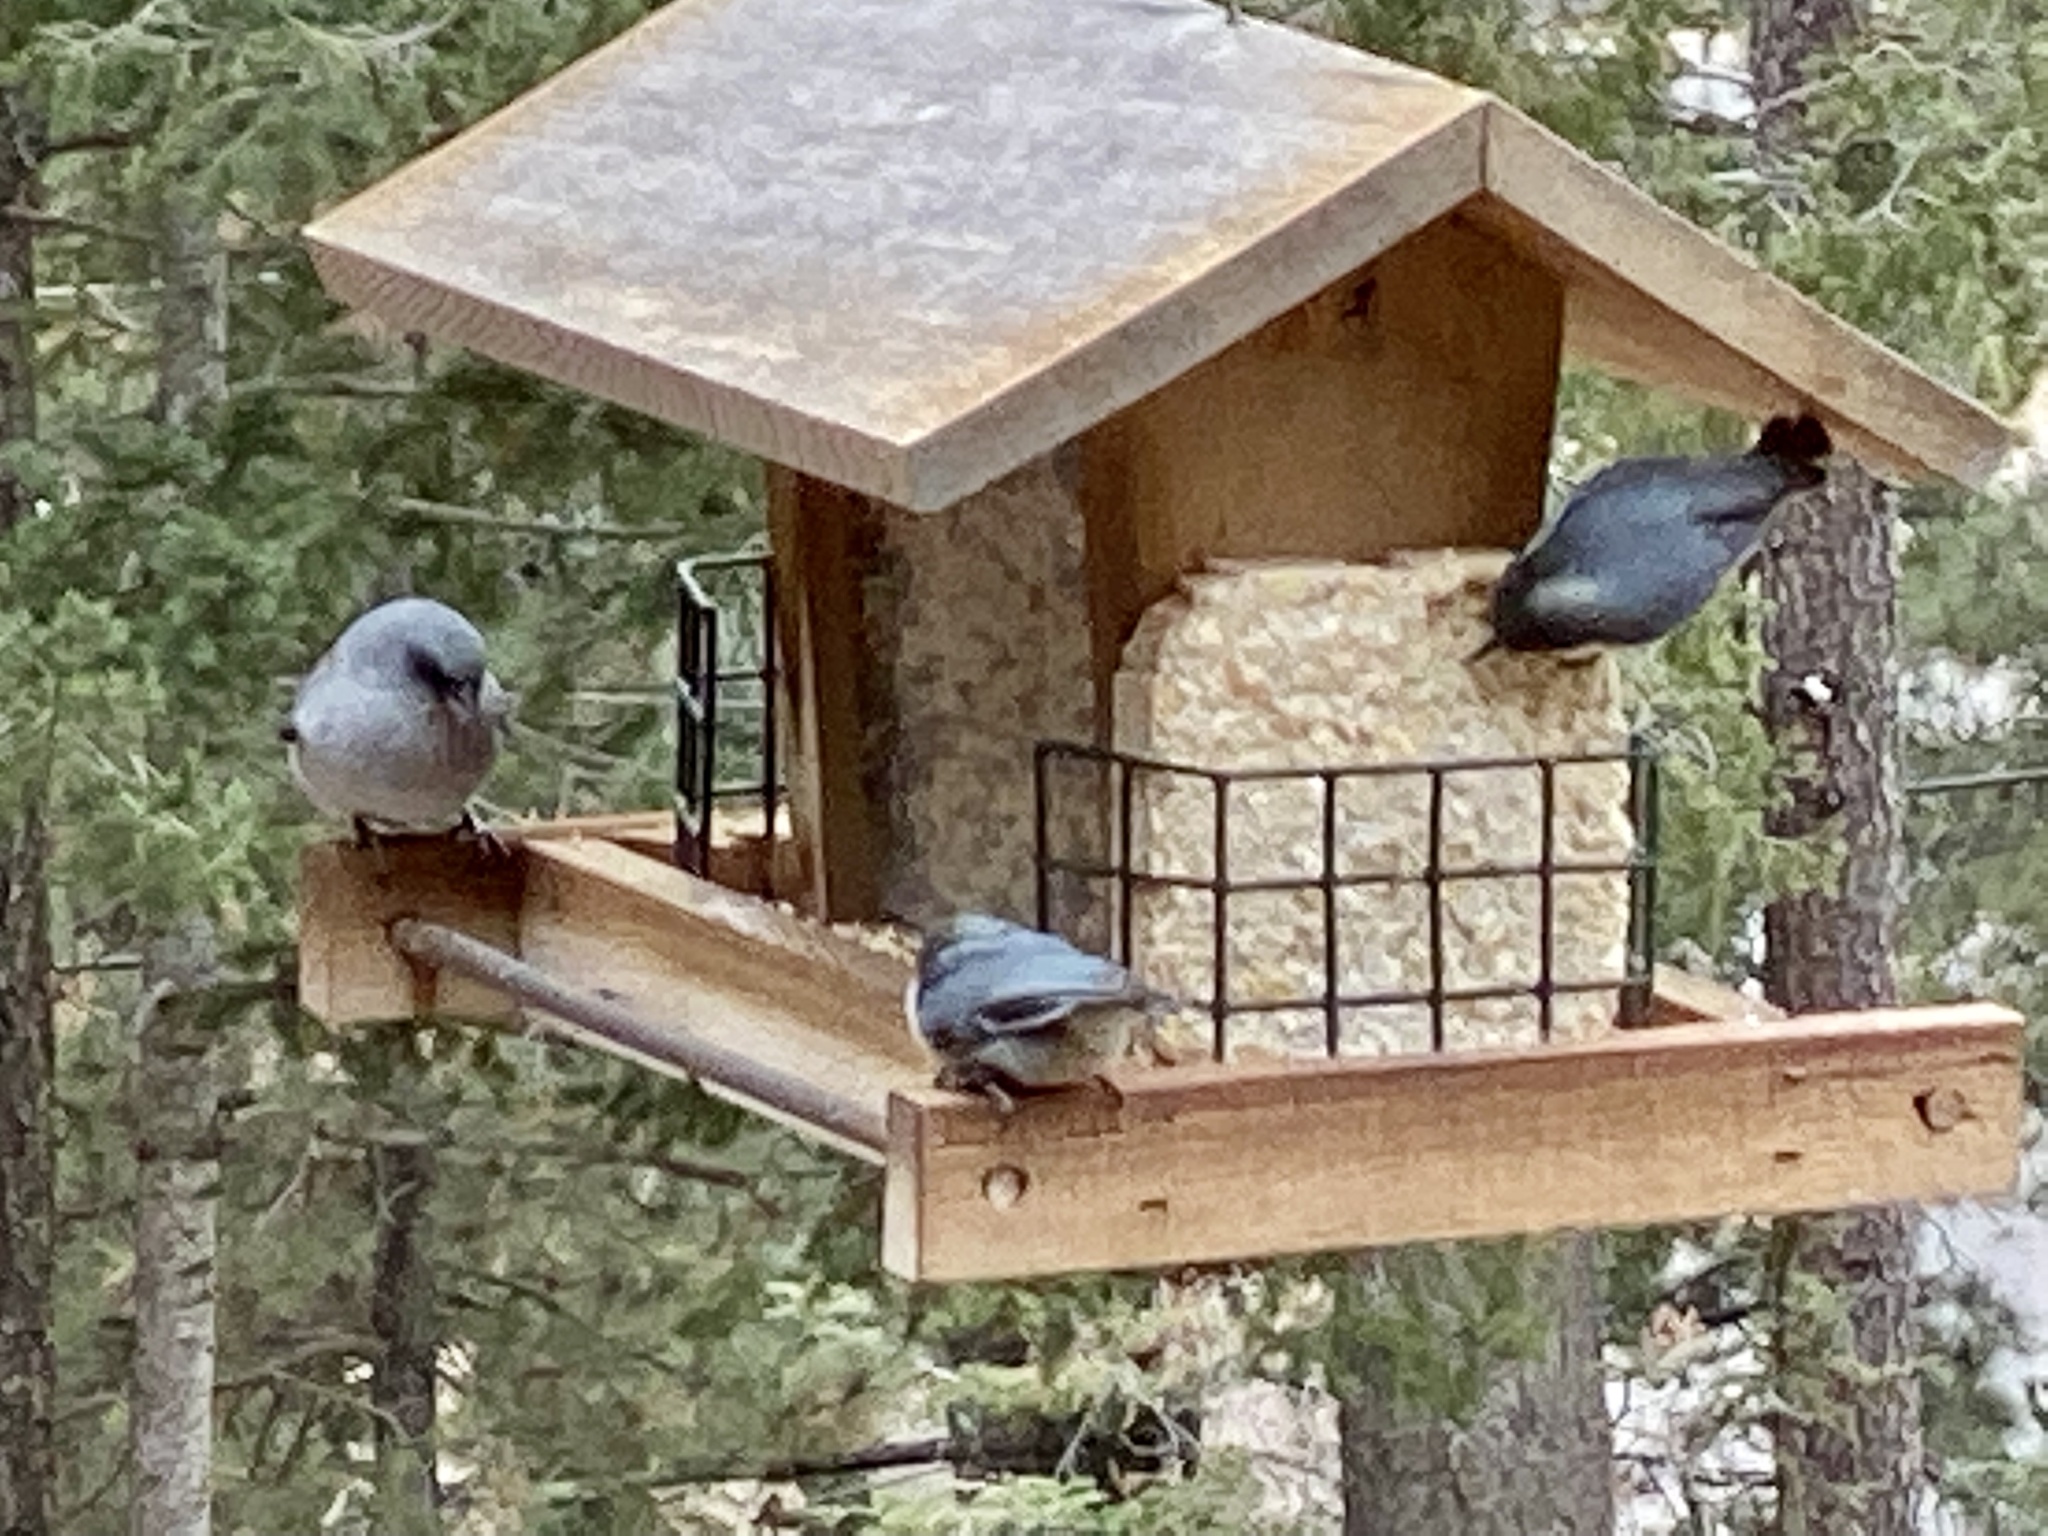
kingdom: Animalia
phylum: Chordata
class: Aves
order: Passeriformes
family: Passerellidae
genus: Junco
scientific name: Junco hyemalis
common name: Dark-eyed junco
